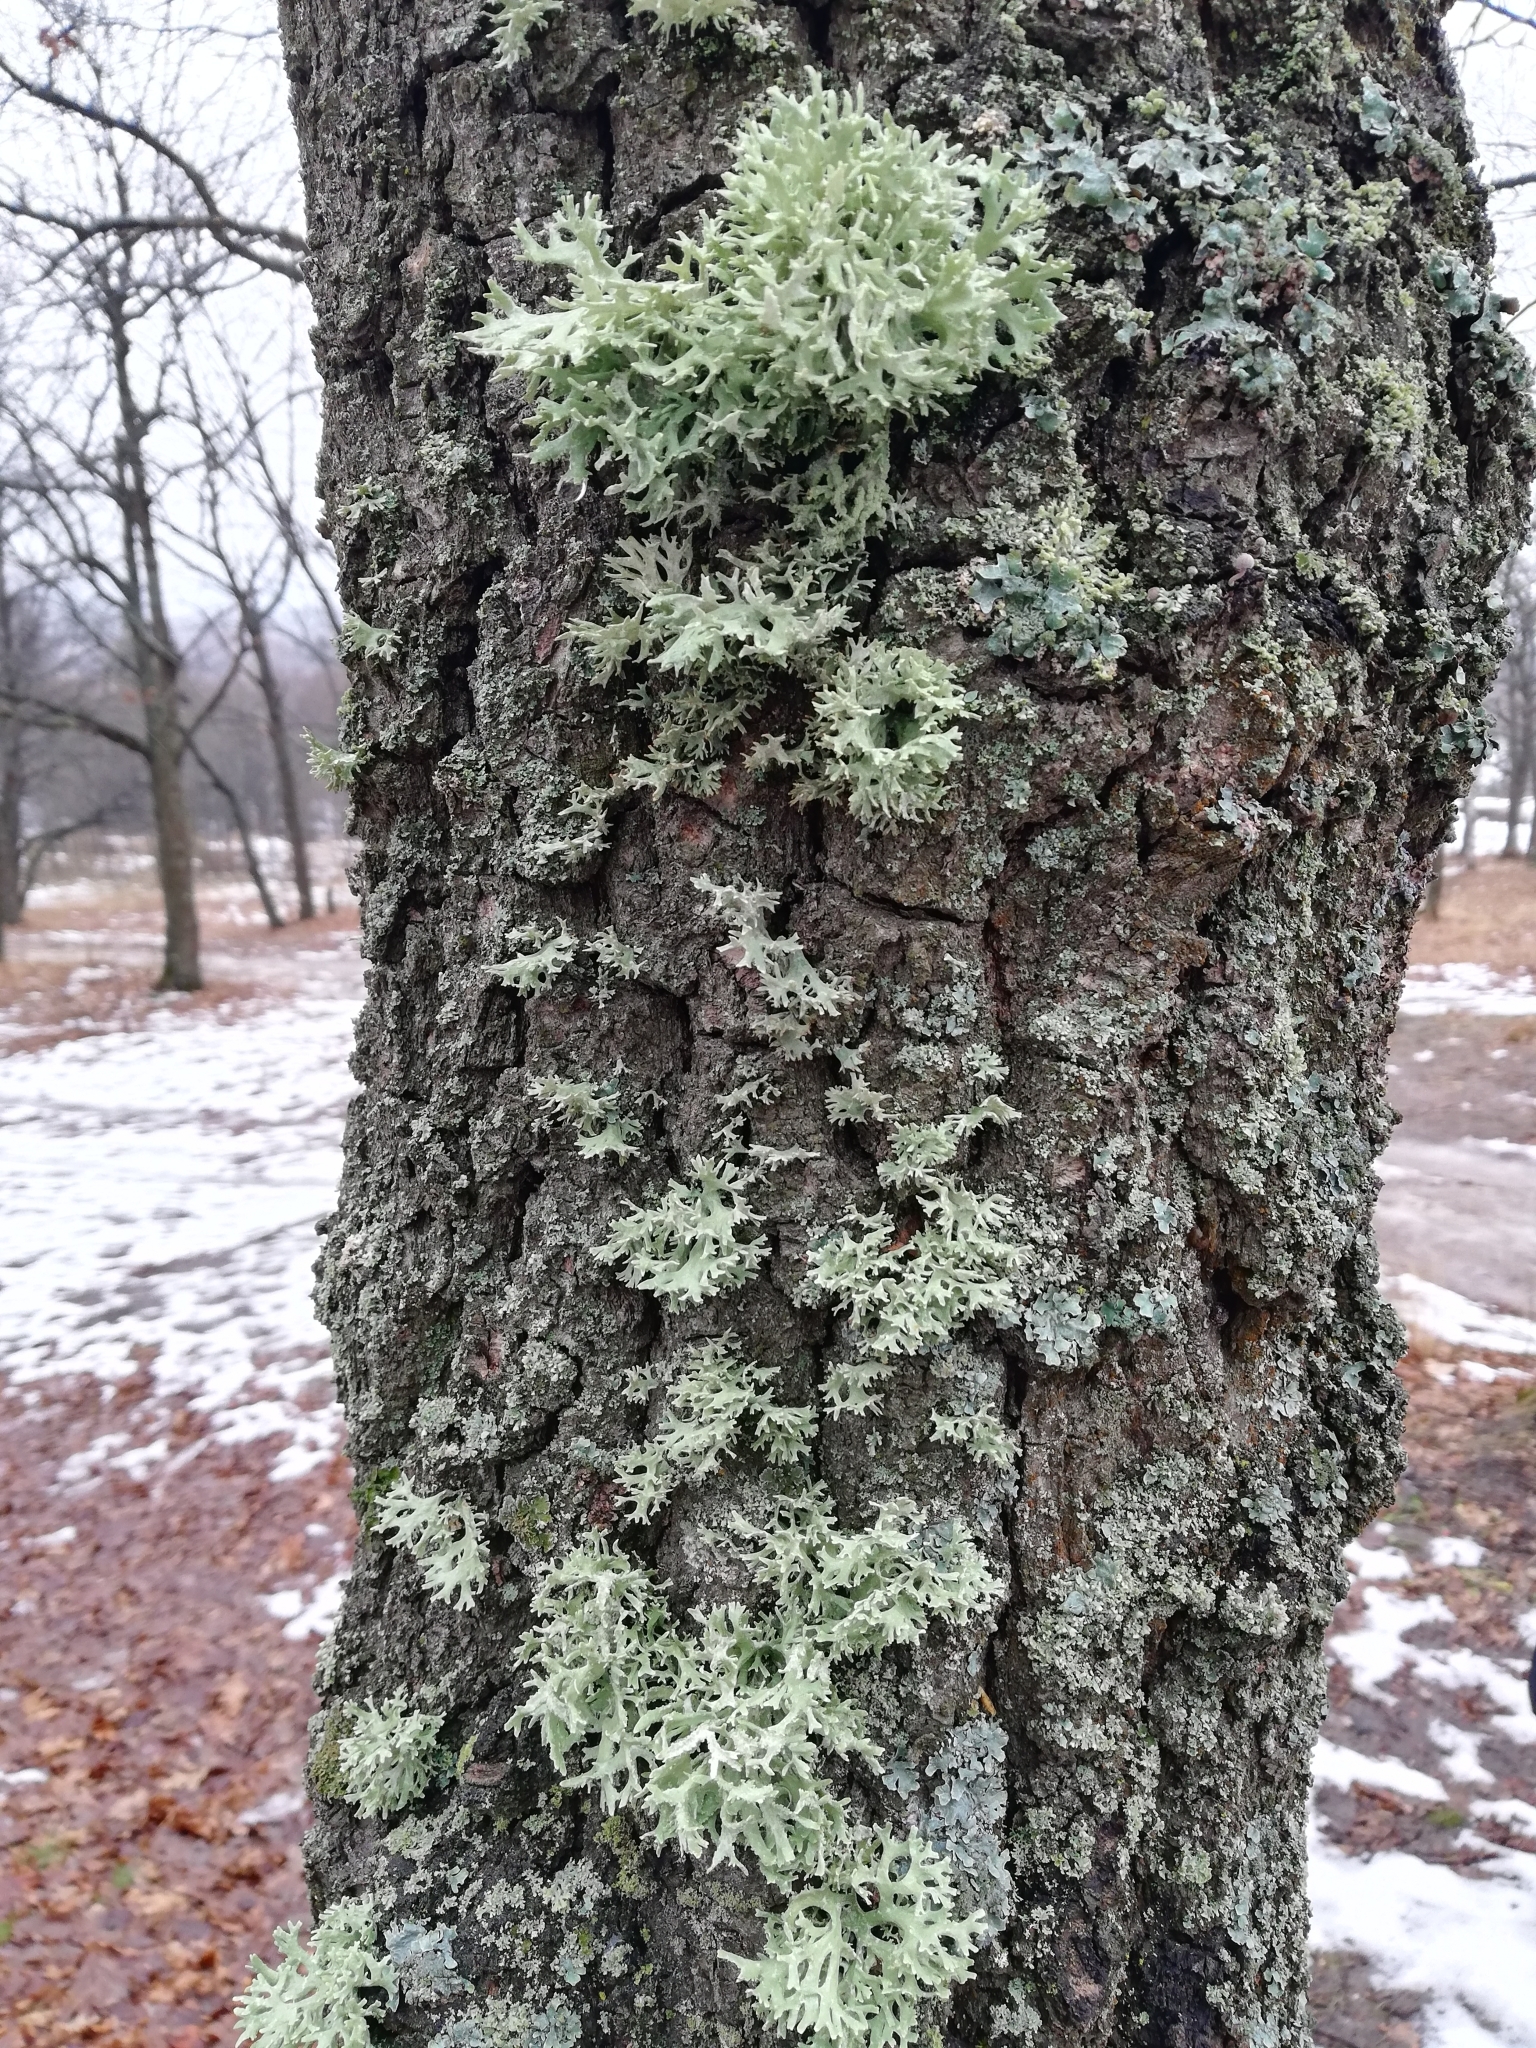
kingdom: Fungi
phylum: Ascomycota
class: Lecanoromycetes
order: Lecanorales
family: Parmeliaceae
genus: Evernia
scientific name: Evernia prunastri
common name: Oak moss
